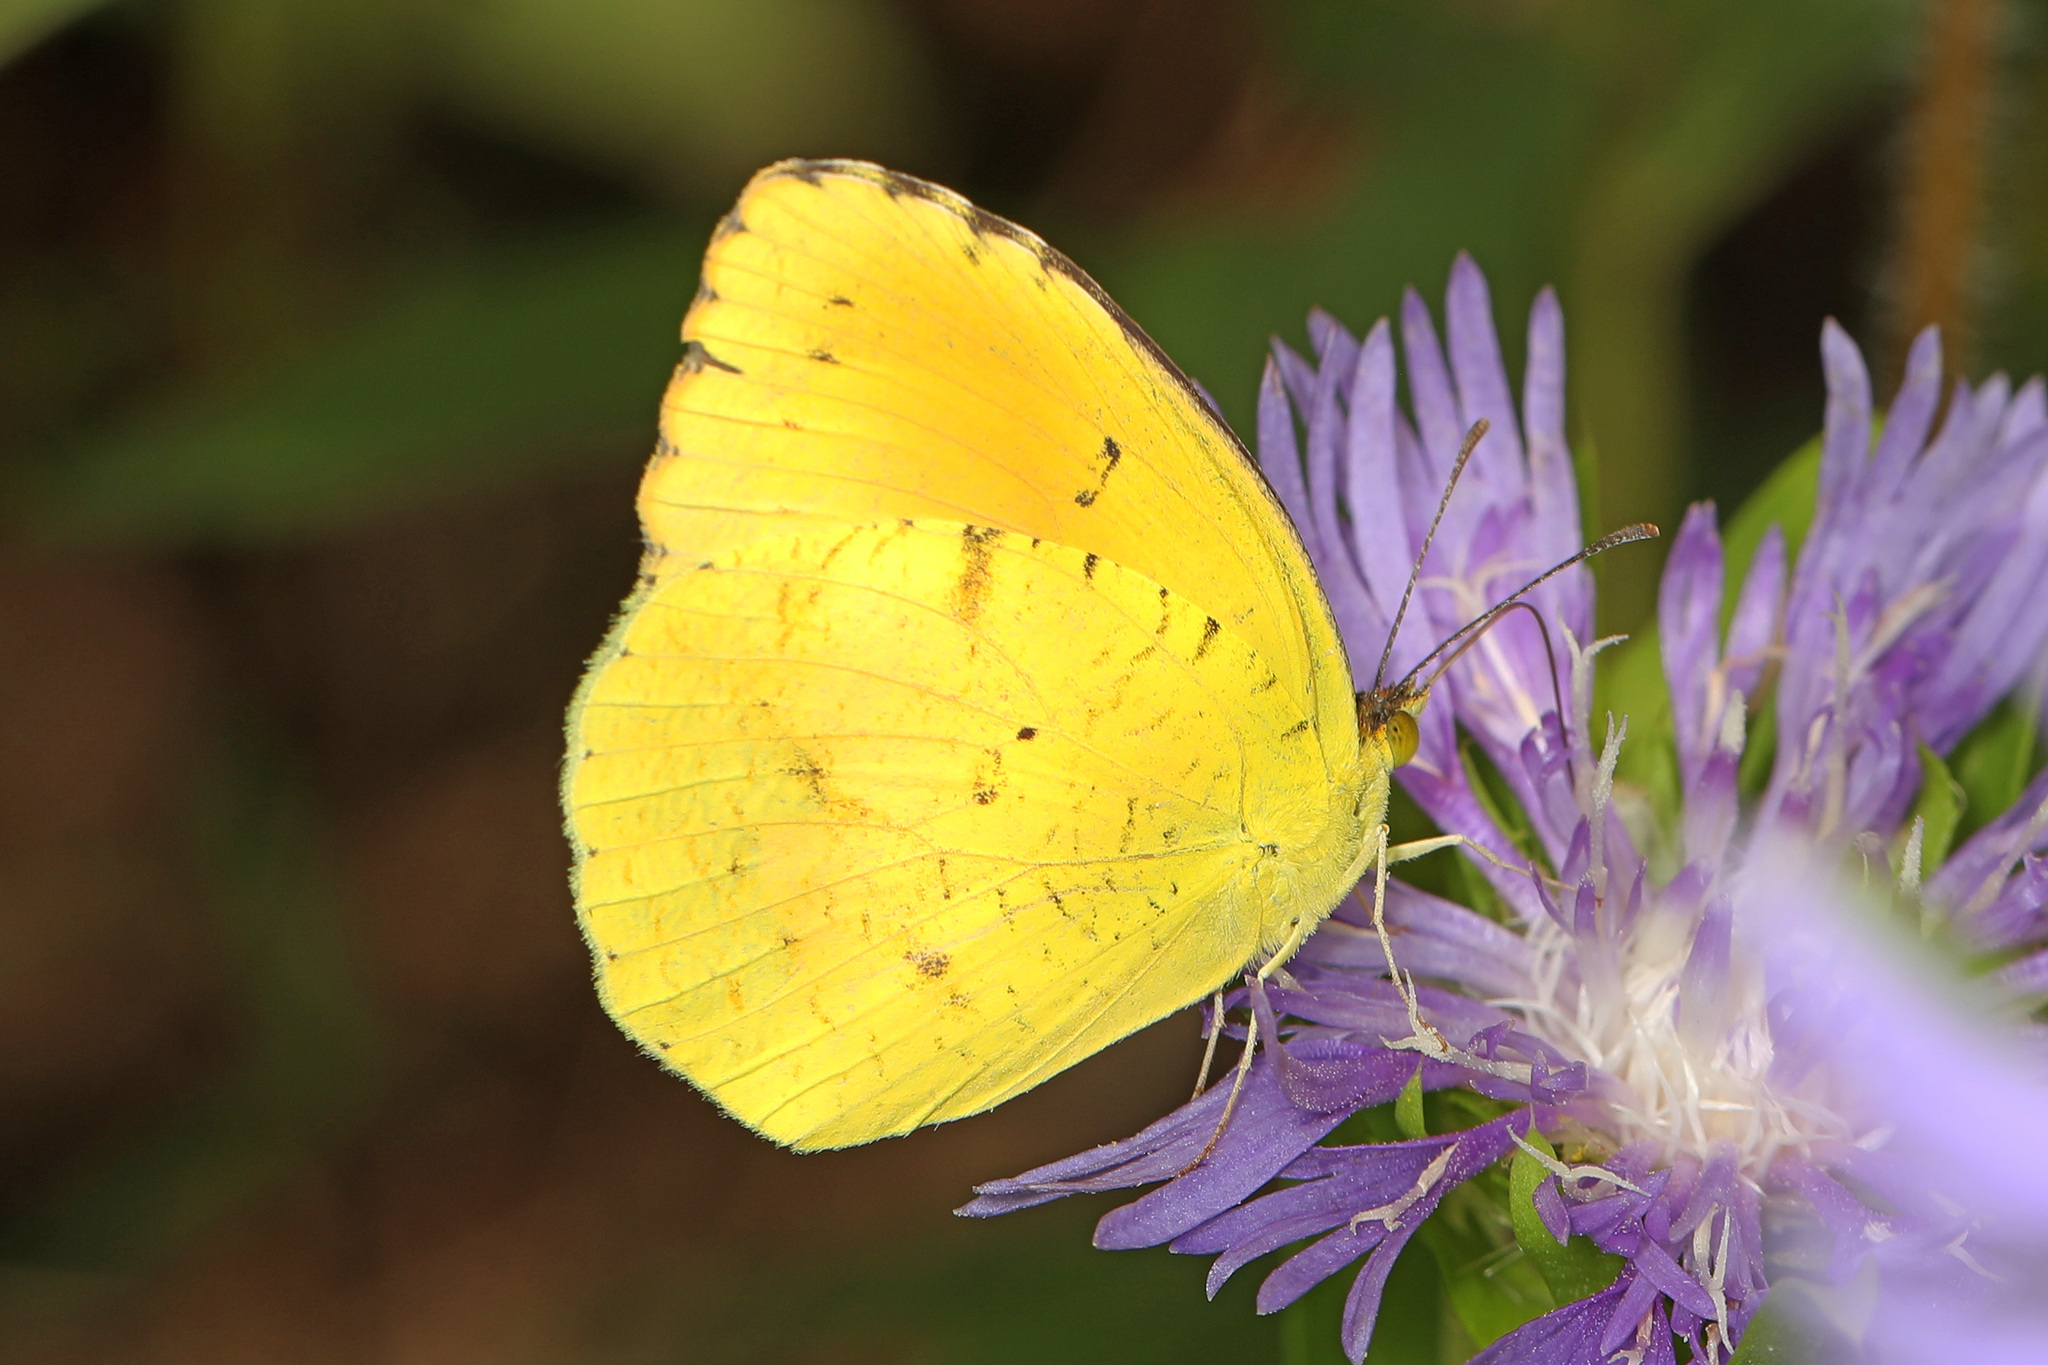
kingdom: Animalia
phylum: Arthropoda
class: Insecta
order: Lepidoptera
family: Pieridae
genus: Abaeis
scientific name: Abaeis nicippe
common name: Sleepy orange
